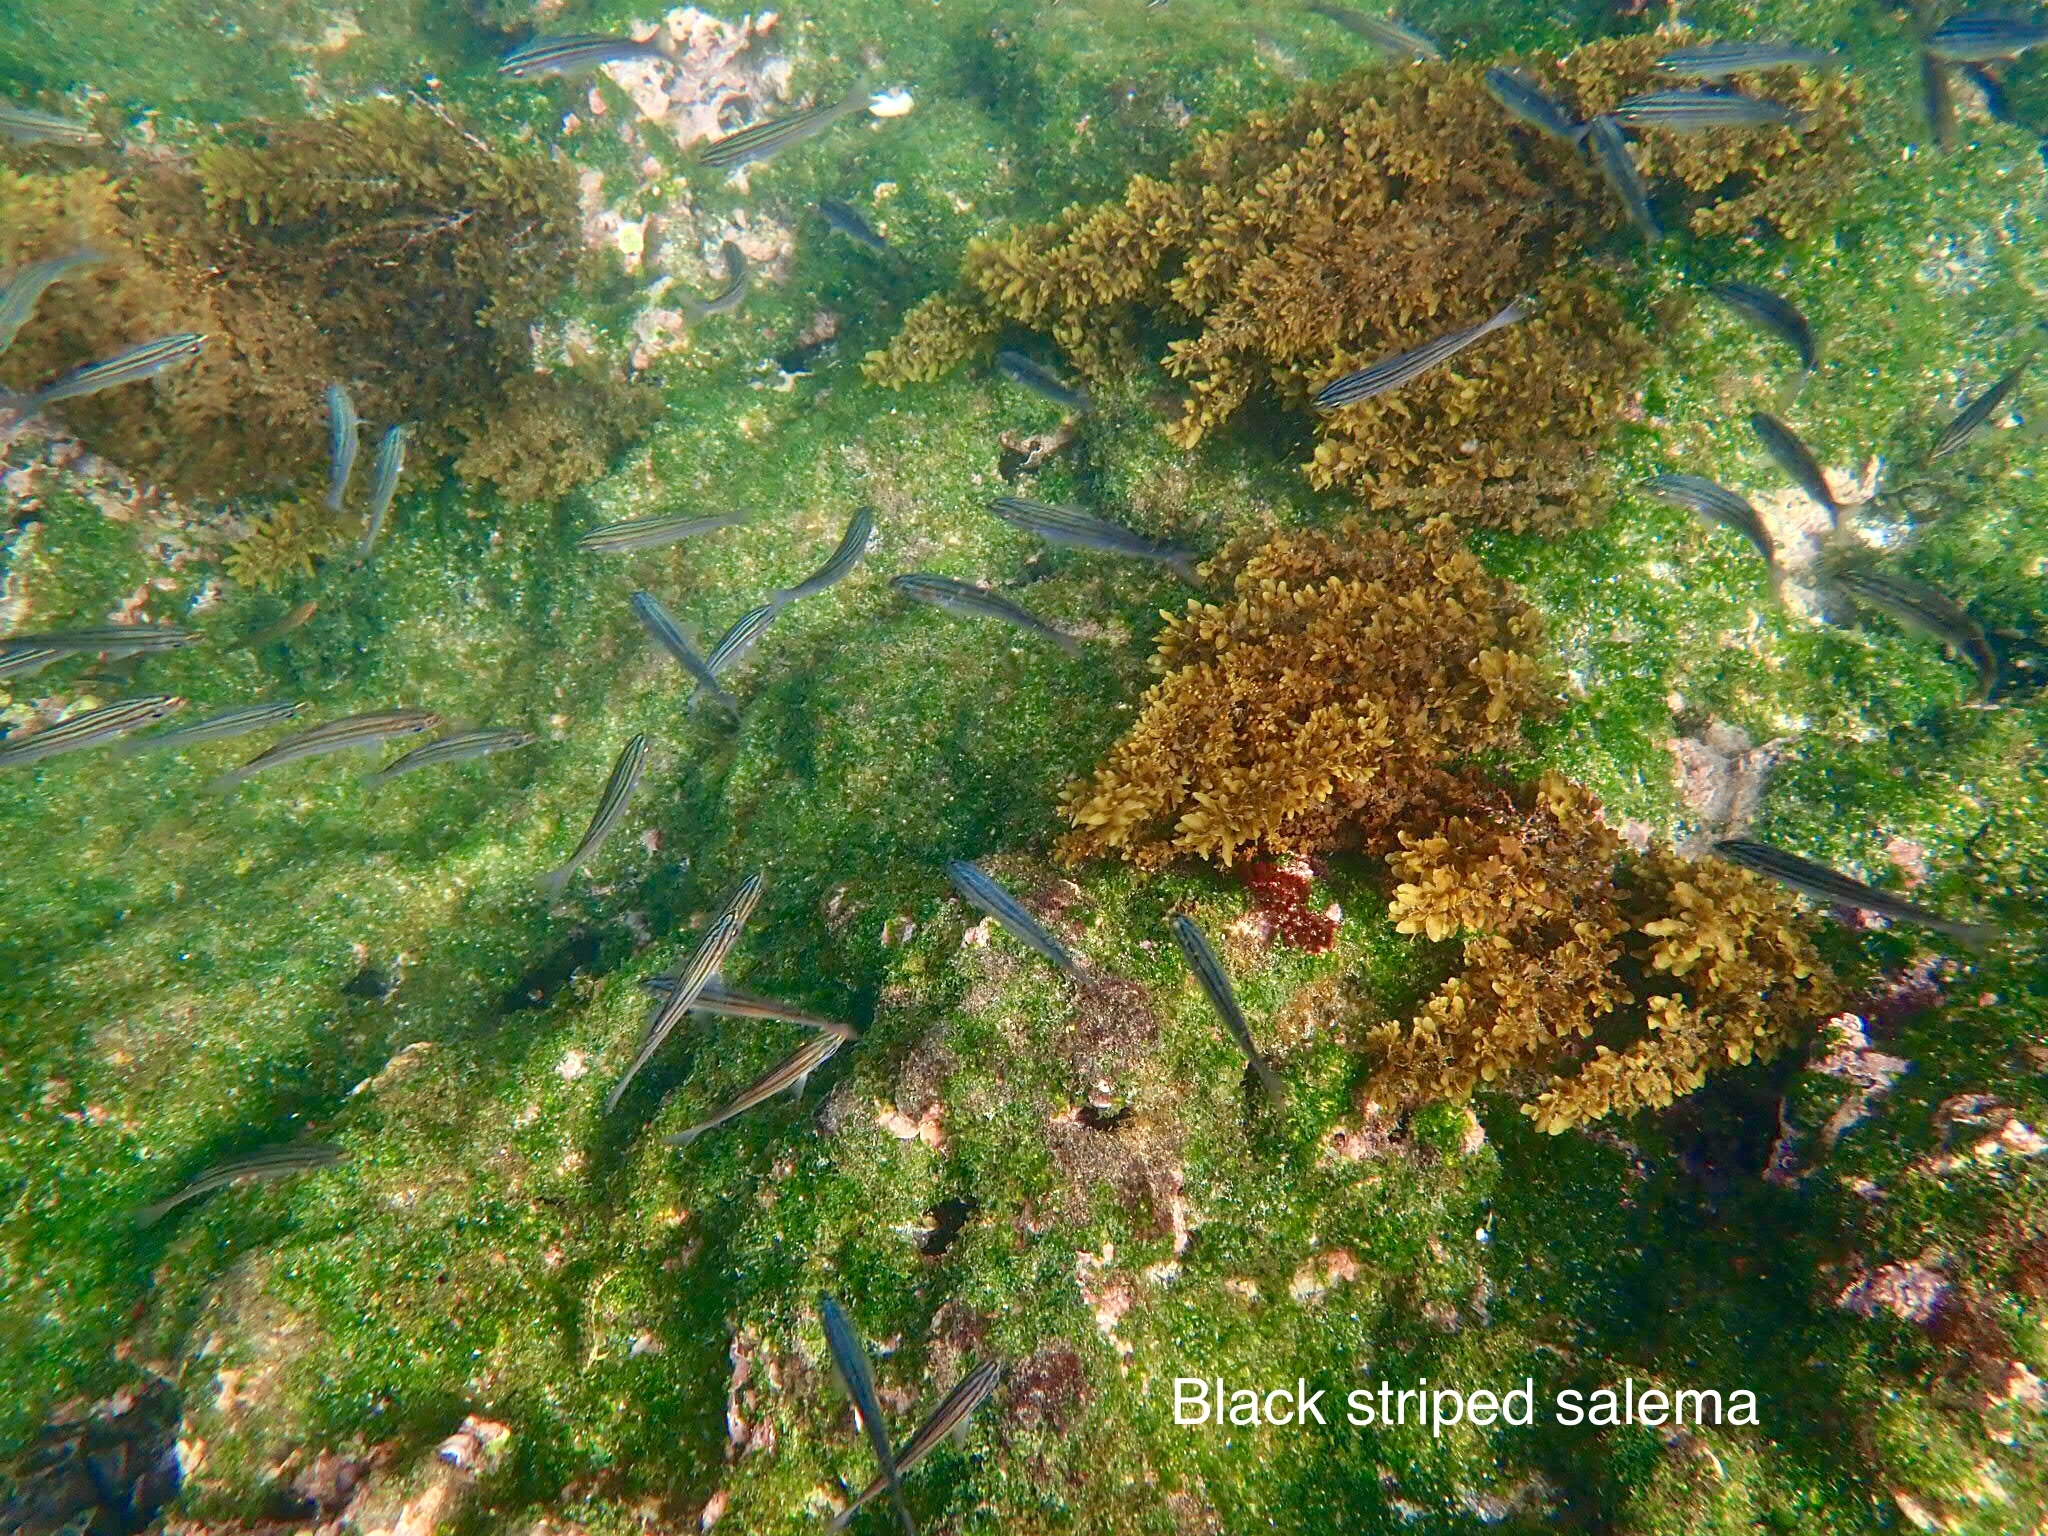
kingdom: Animalia
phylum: Chordata
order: Perciformes
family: Haemulidae
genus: Xenocys
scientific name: Xenocys jessiae
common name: Black-striped salema
